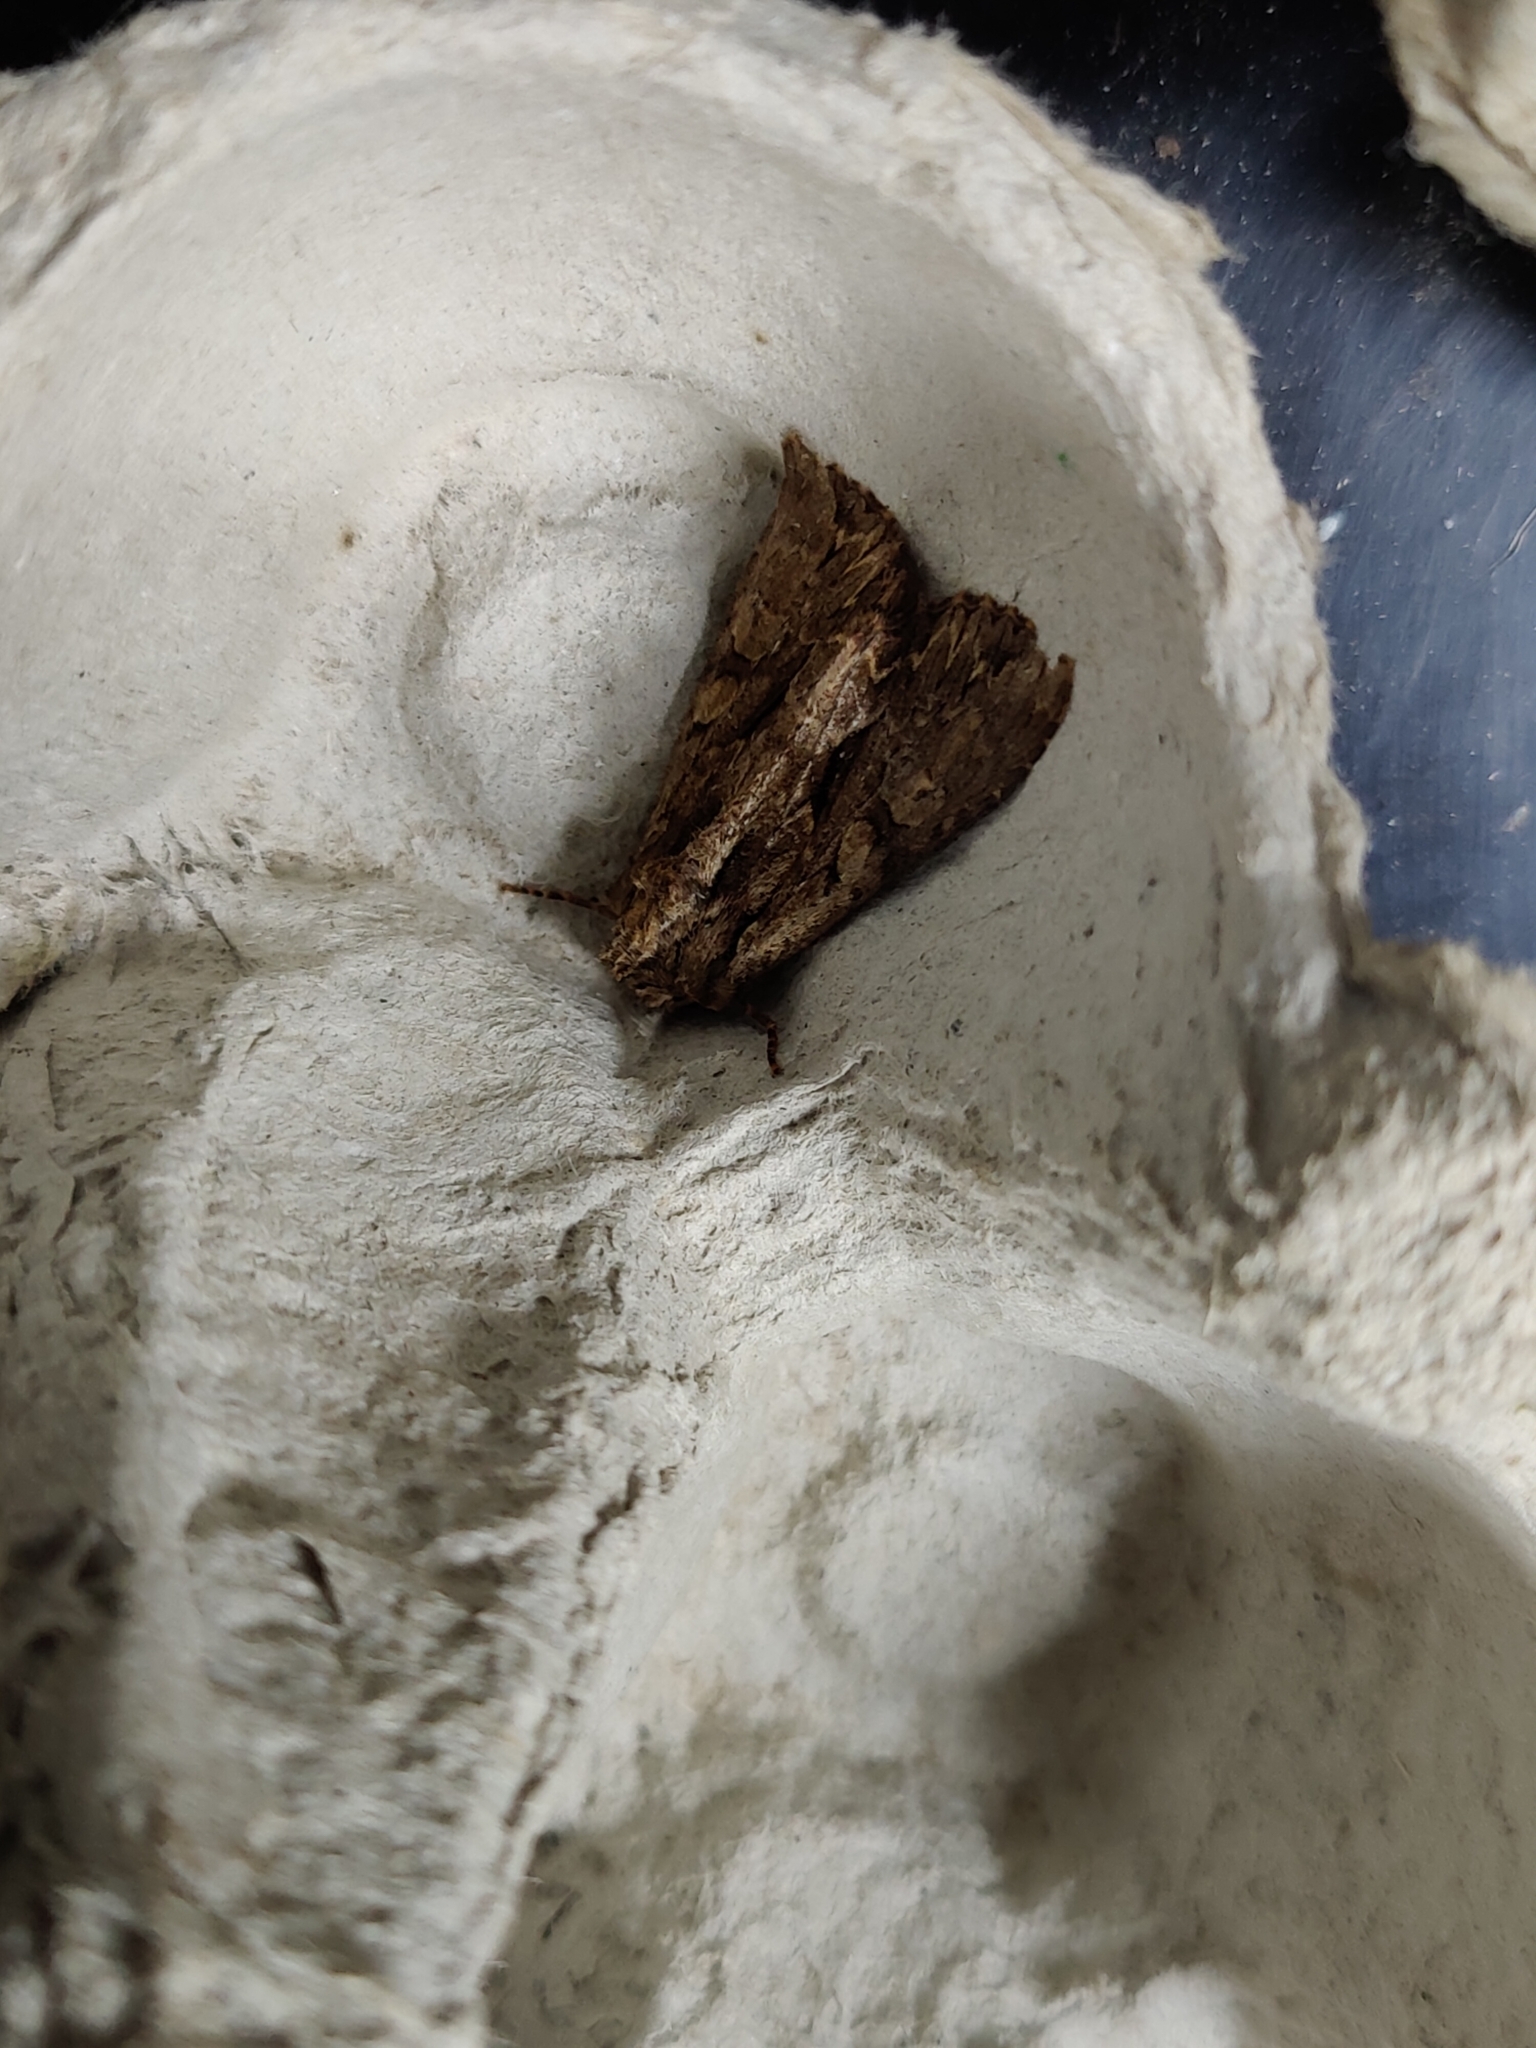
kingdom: Animalia
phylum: Arthropoda
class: Insecta
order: Lepidoptera
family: Noctuidae
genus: Apamea
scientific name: Apamea monoglypha
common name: Dark arches
